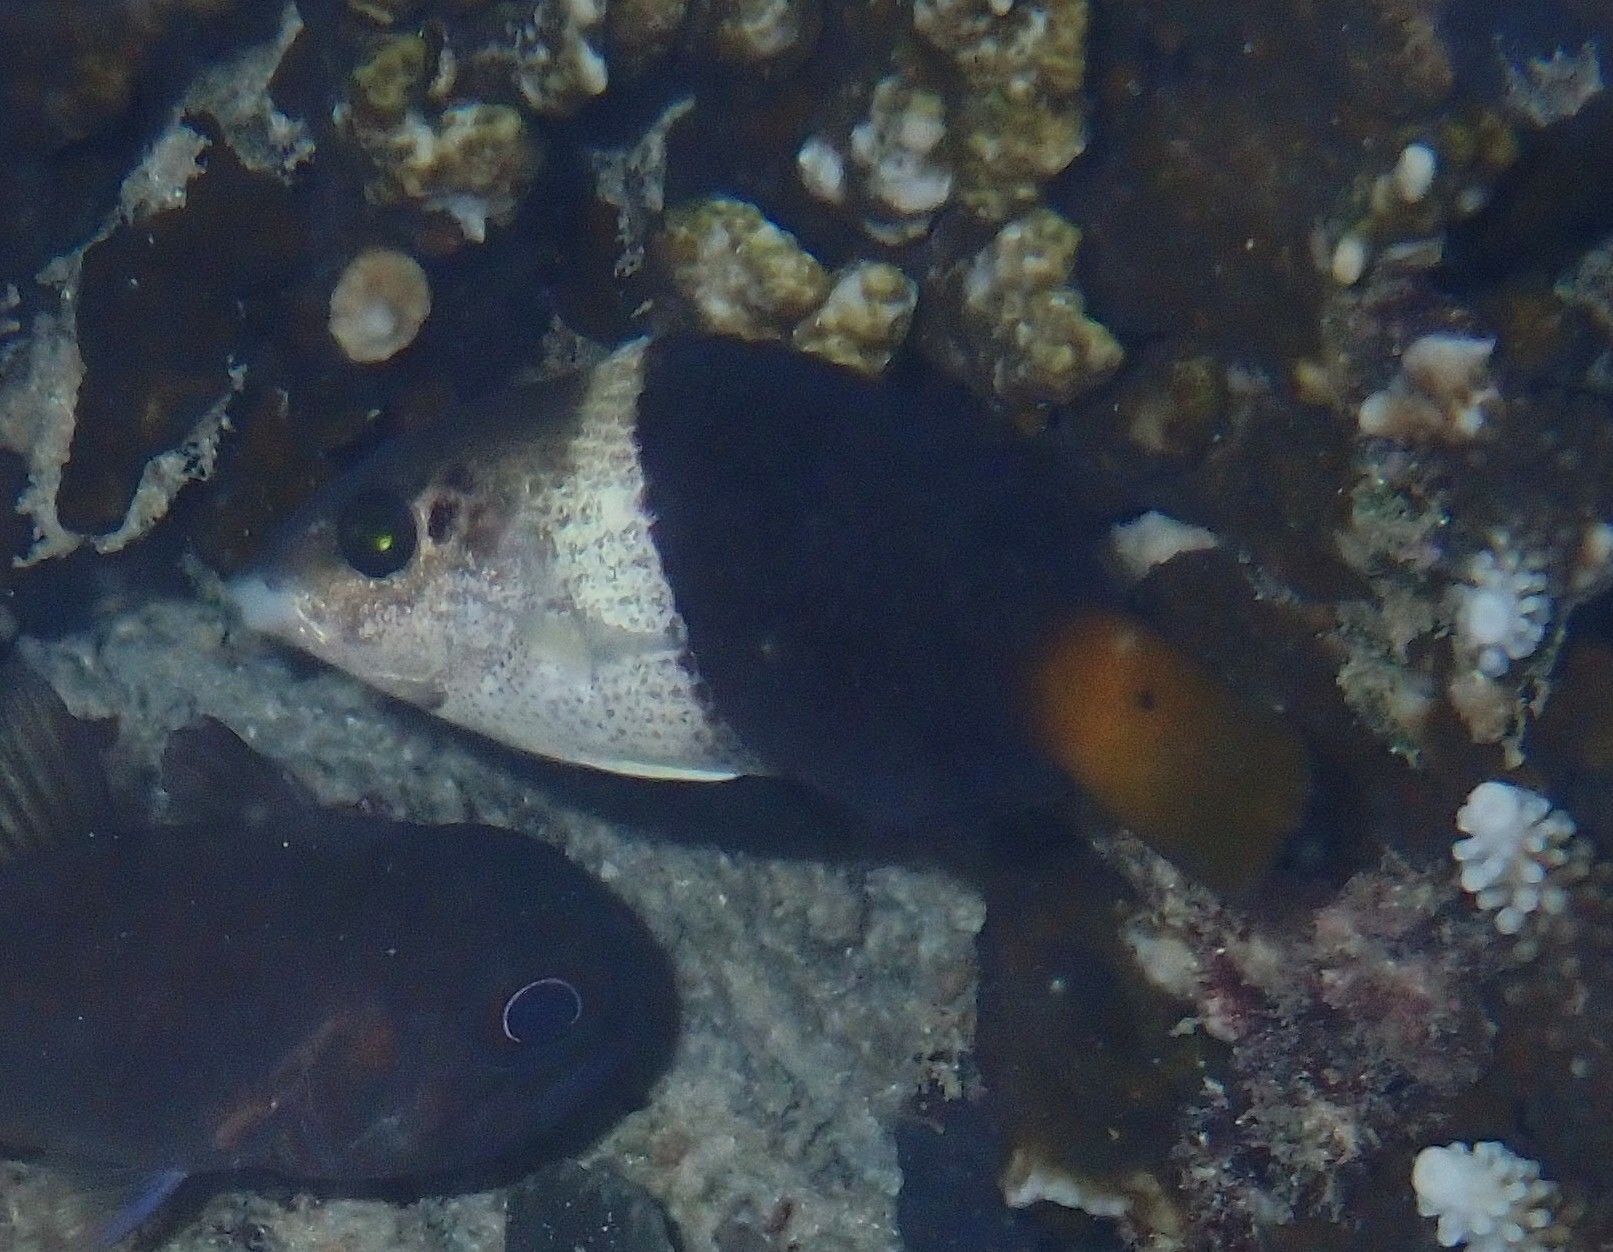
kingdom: Animalia
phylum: Chordata
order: Perciformes
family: Labridae
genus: Hemigymnus
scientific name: Hemigymnus melapterus
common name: Blackeye thicklip
